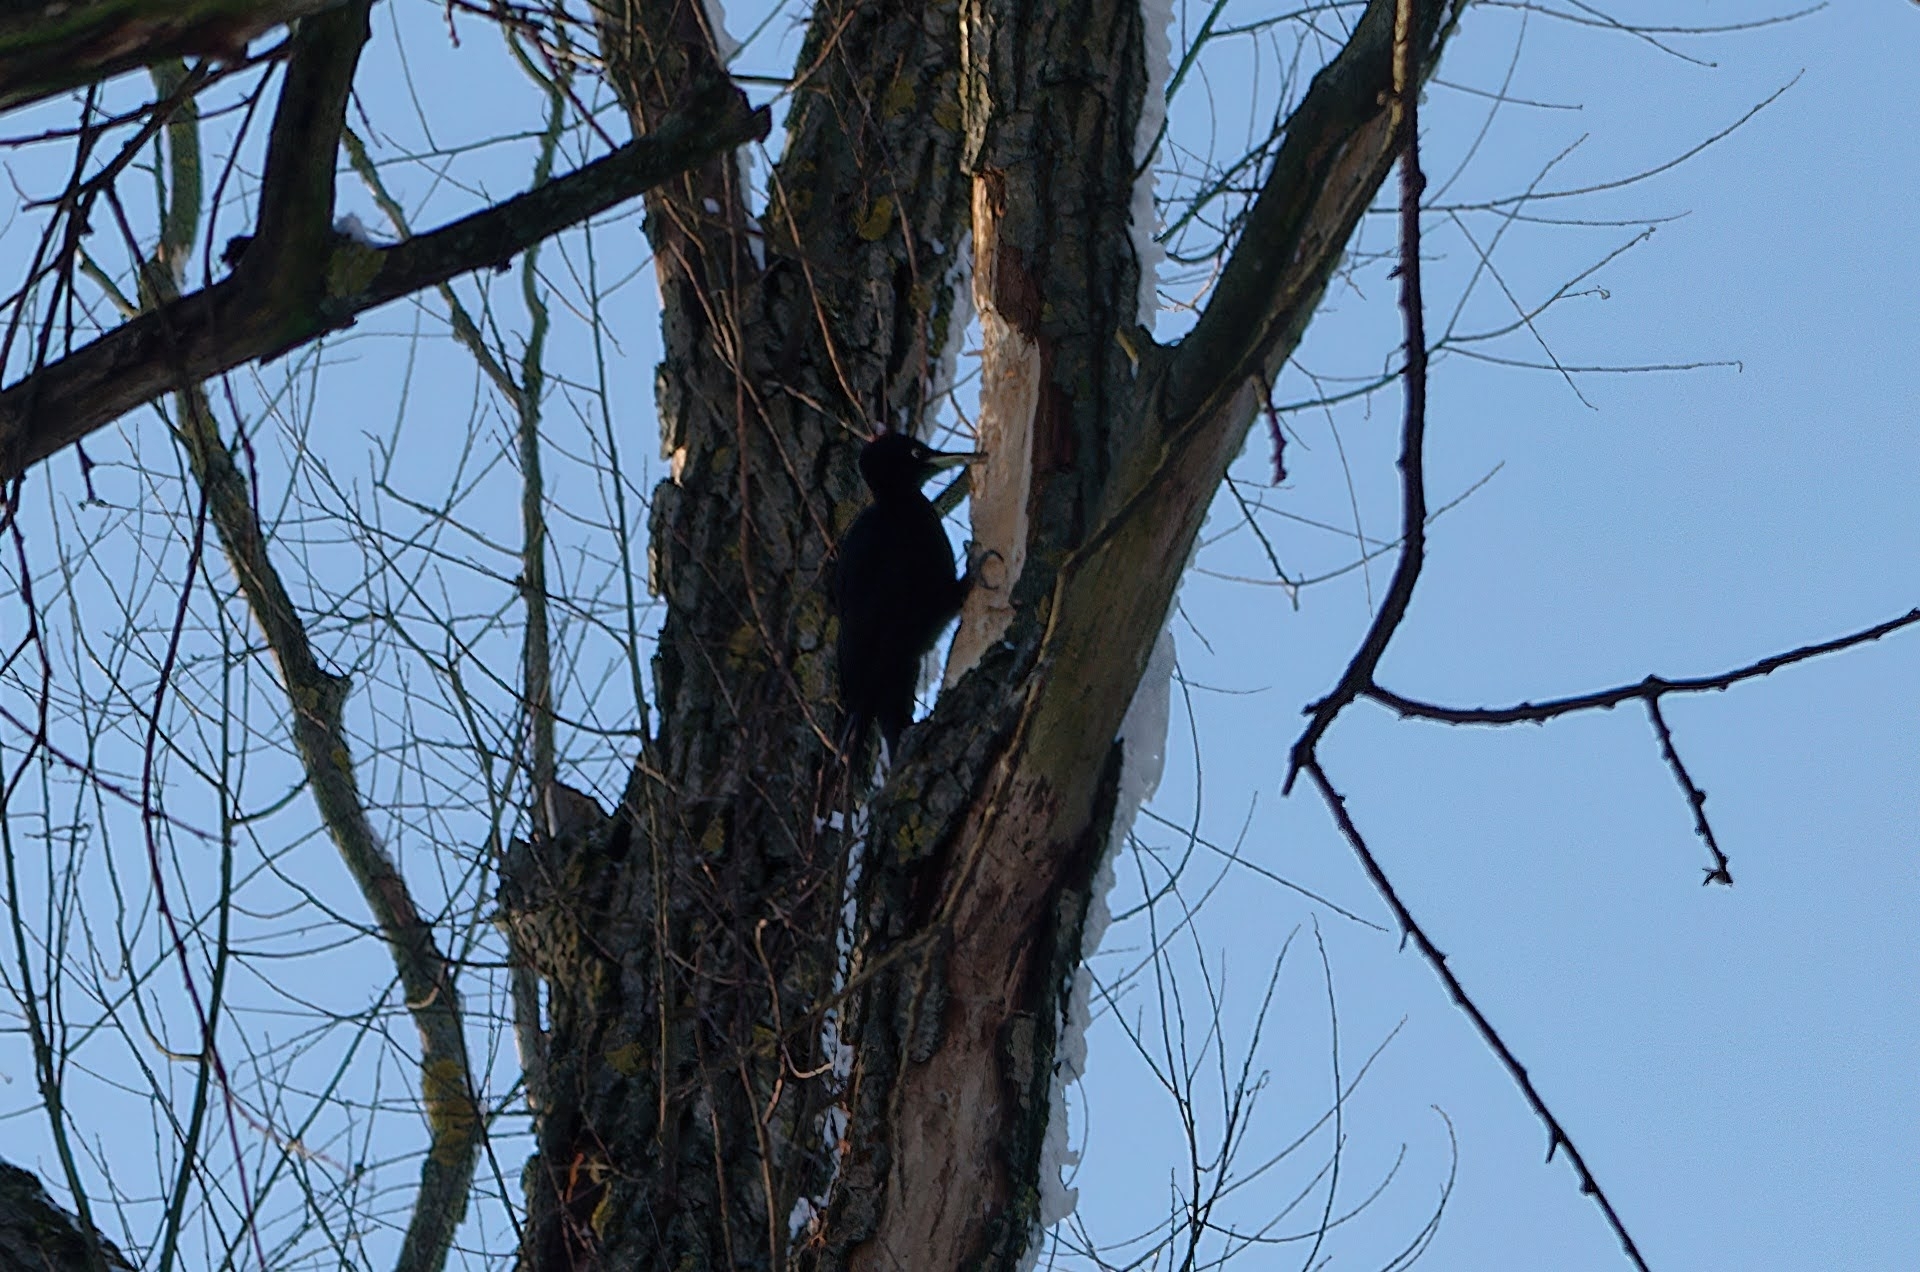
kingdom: Animalia
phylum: Chordata
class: Aves
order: Piciformes
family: Picidae
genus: Dryocopus
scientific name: Dryocopus martius
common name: Black woodpecker
